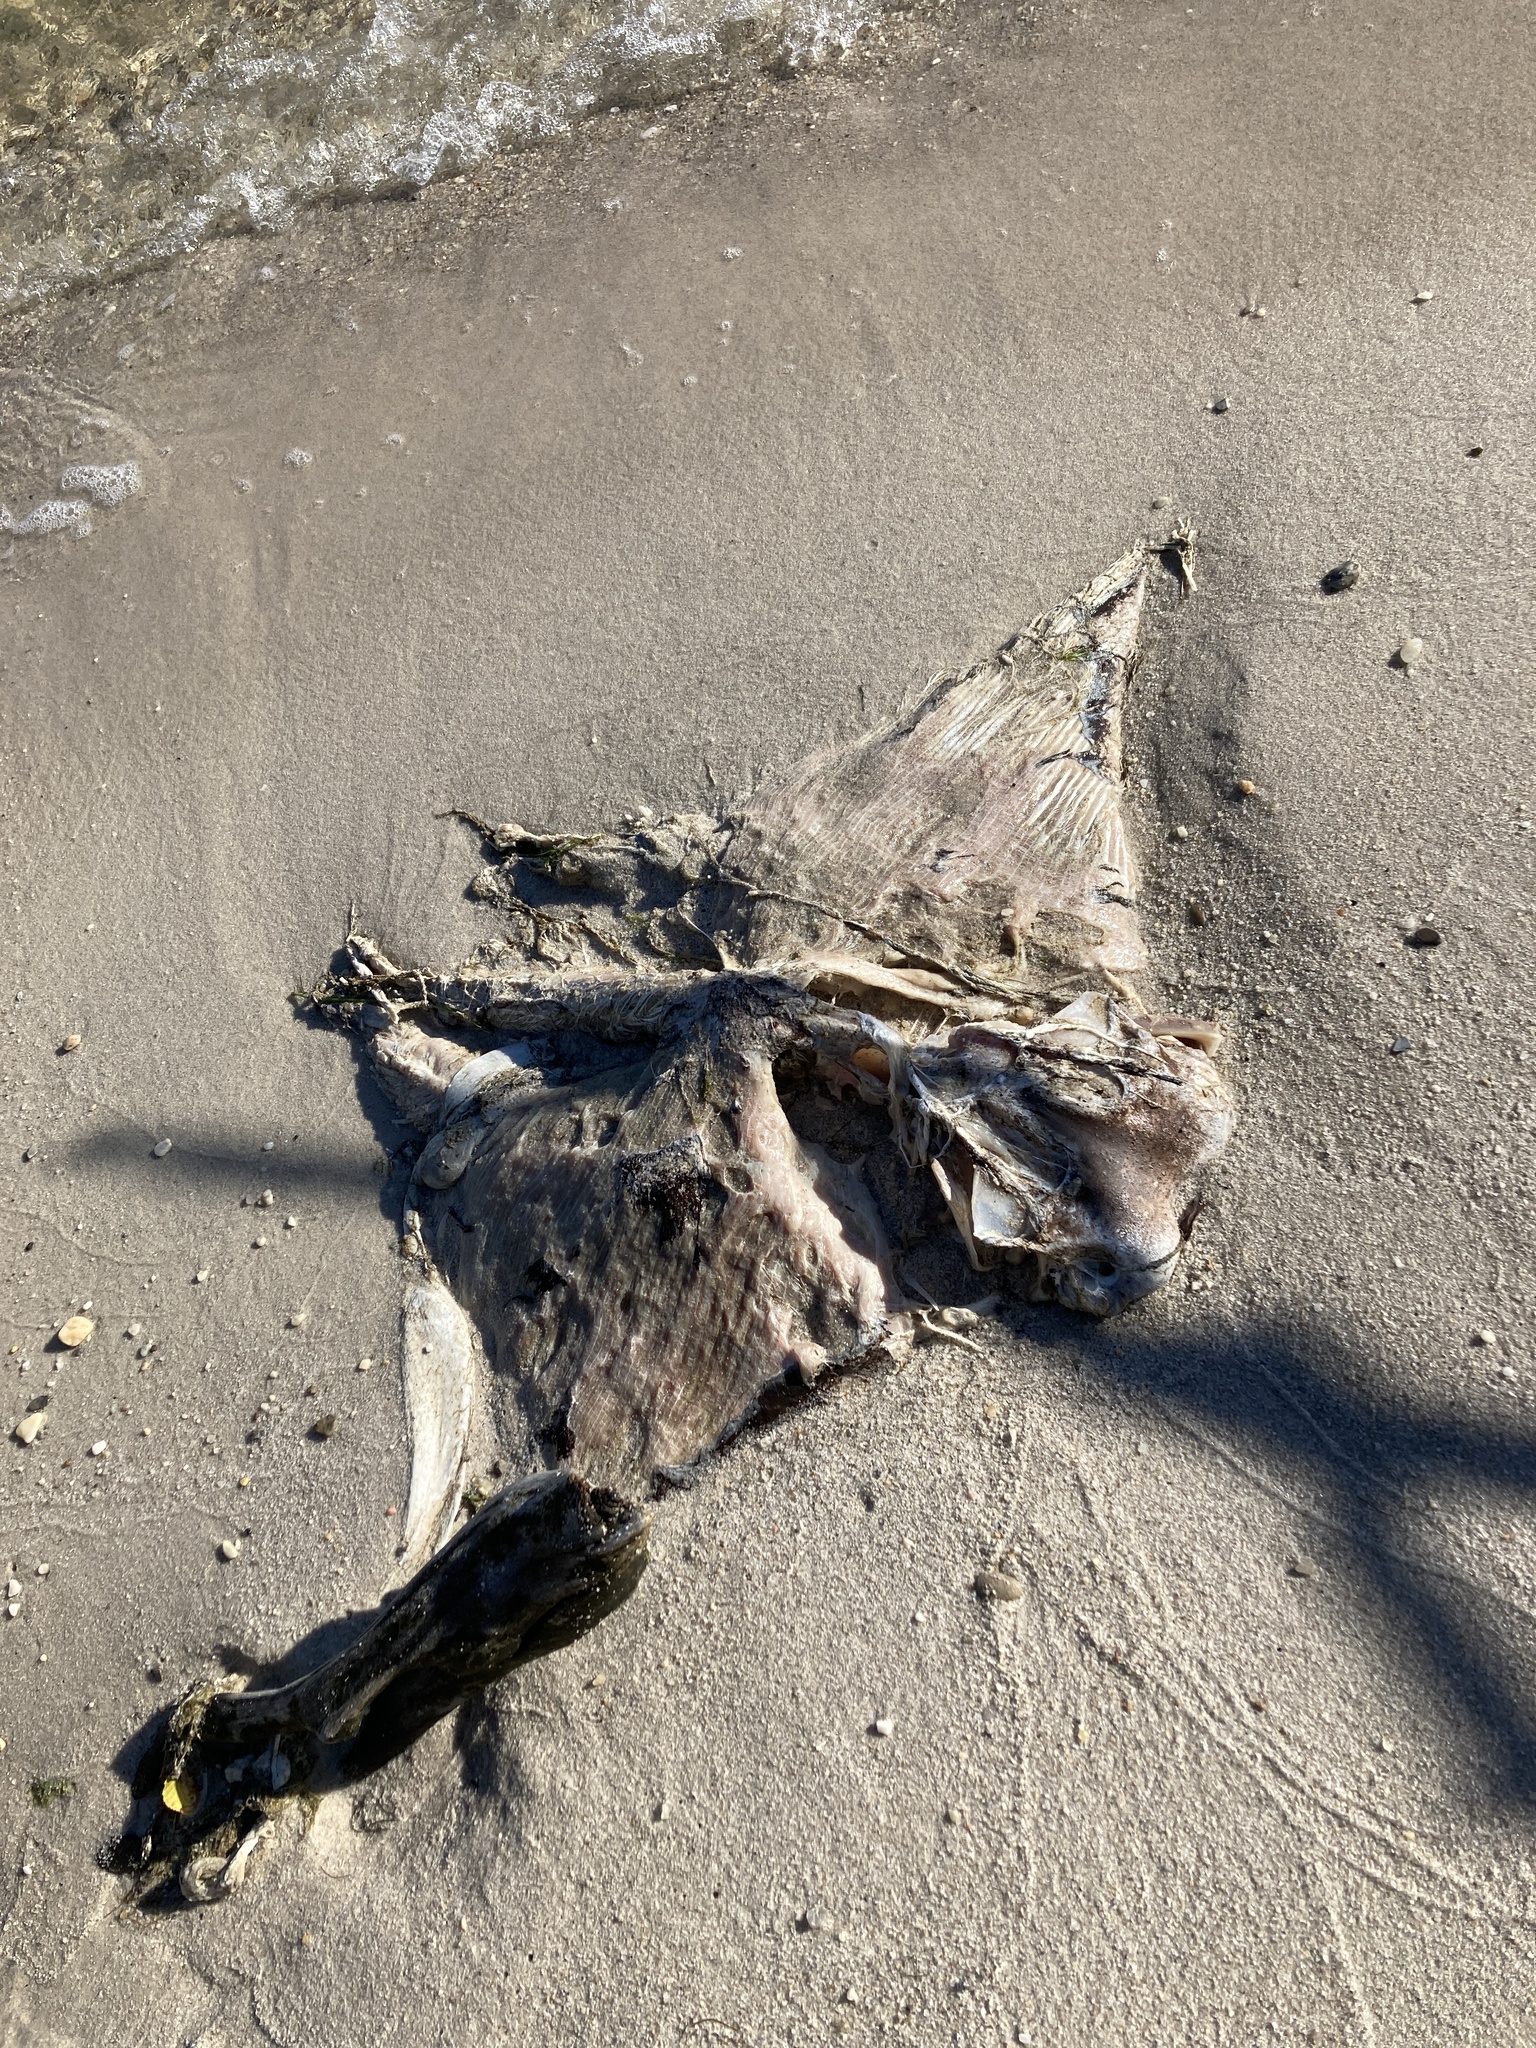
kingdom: Animalia
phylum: Chordata
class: Elasmobranchii
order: Myliobatiformes
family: Myliobatidae
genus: Rhinoptera
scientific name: Rhinoptera bonasus
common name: Cownose ray
